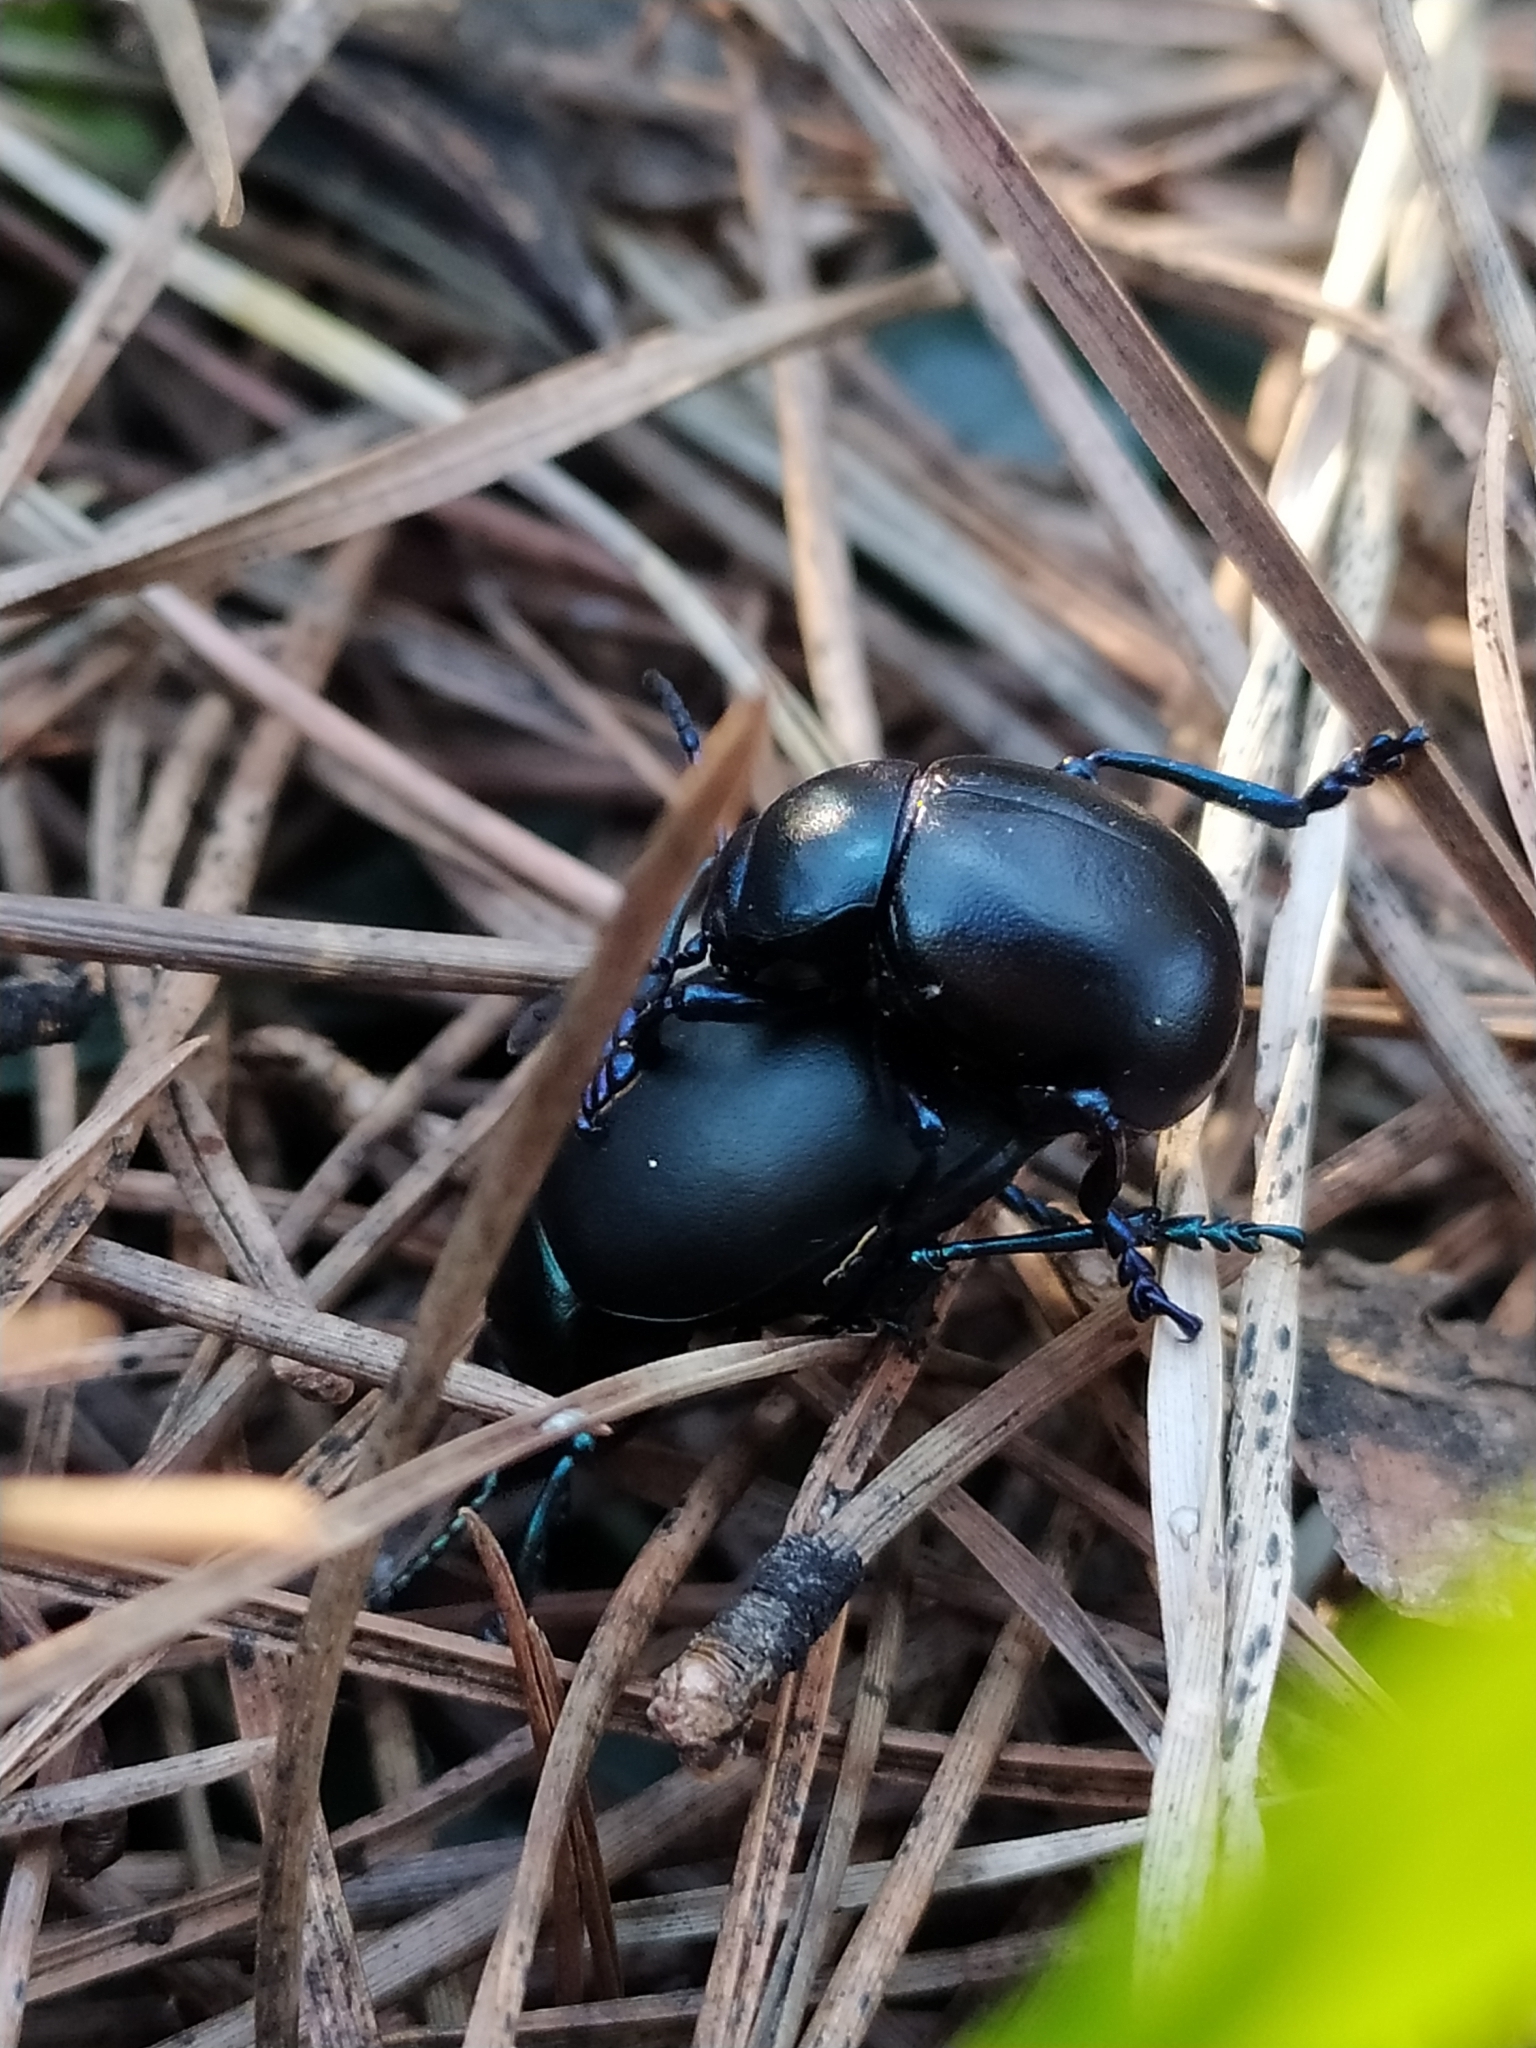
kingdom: Animalia
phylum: Arthropoda
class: Insecta
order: Coleoptera
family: Chrysomelidae
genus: Timarcha
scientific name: Timarcha nicaeensis
